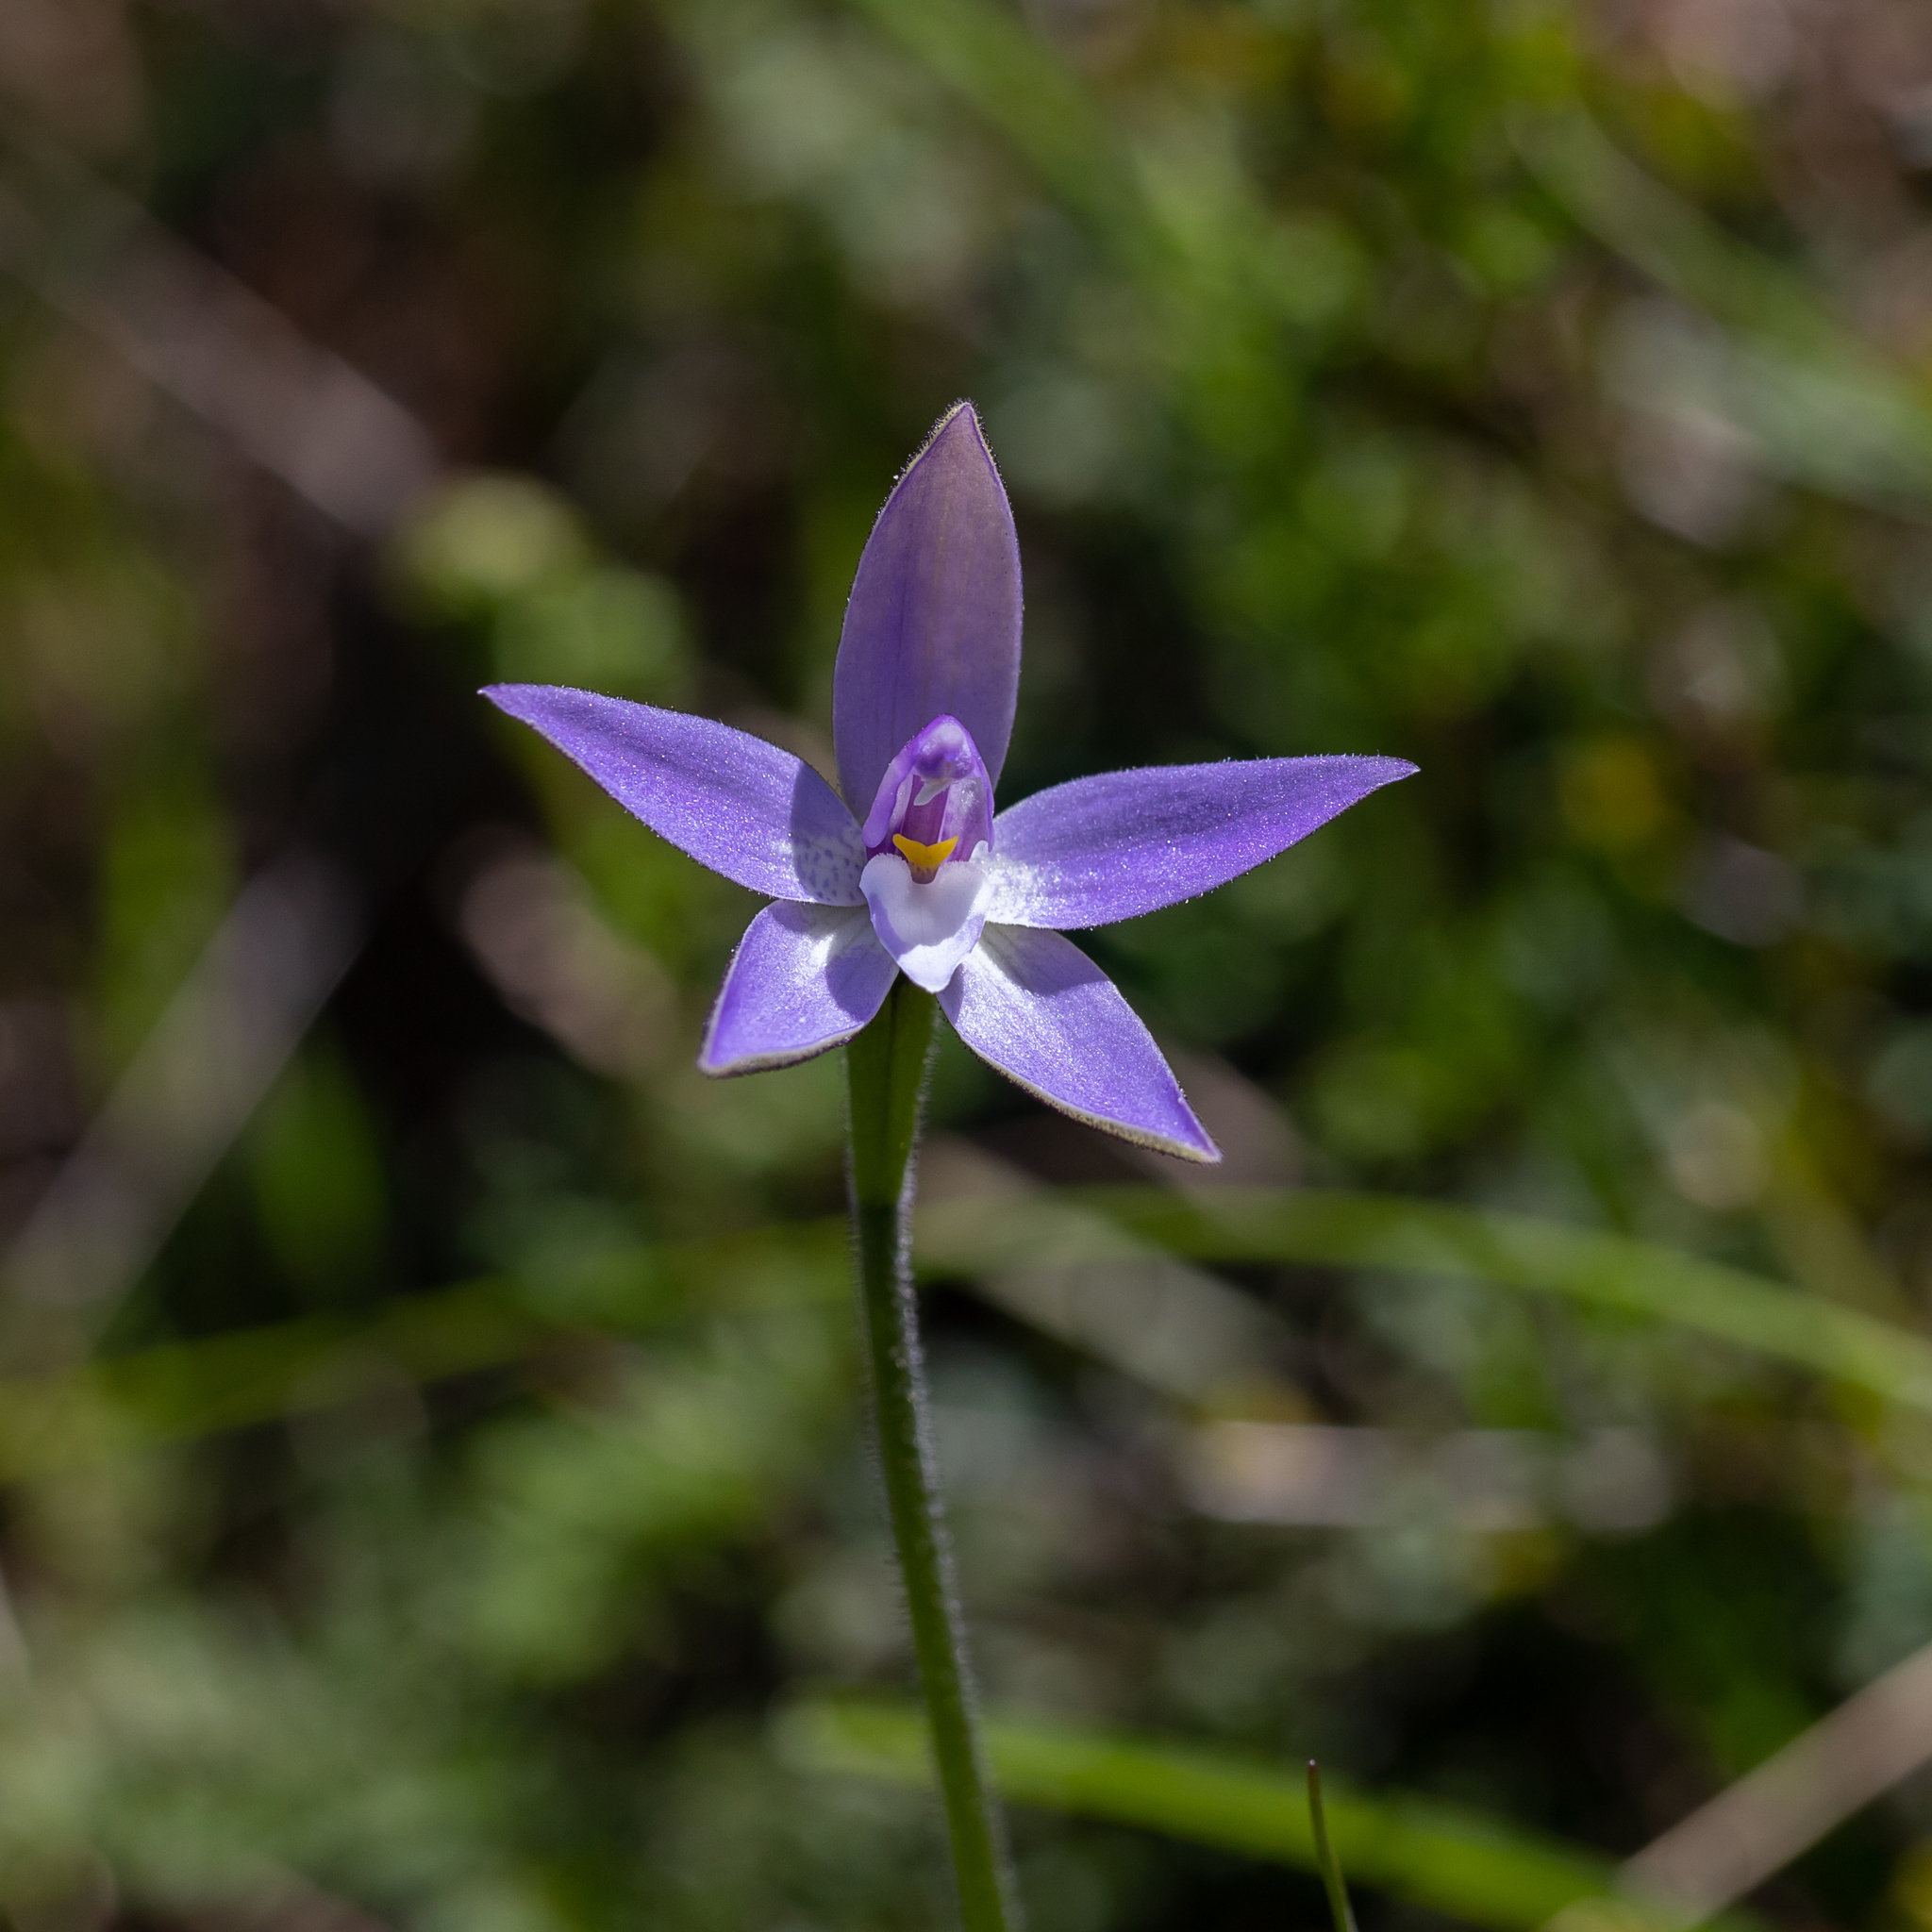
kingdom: Plantae
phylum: Tracheophyta
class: Liliopsida
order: Asparagales
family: Orchidaceae
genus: Caladenia
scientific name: Caladenia major
